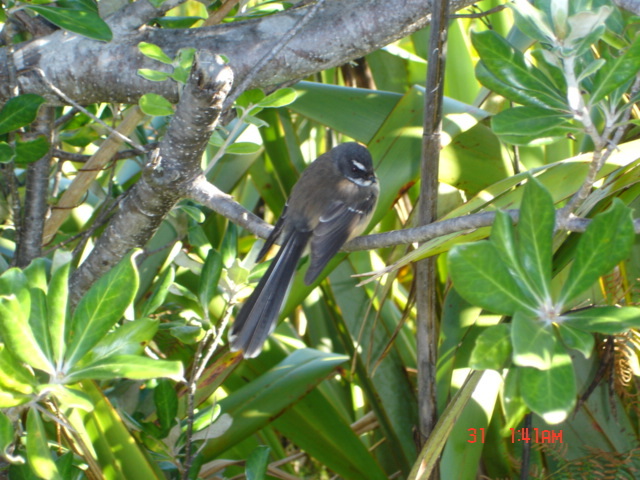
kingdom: Animalia
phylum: Chordata
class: Aves
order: Passeriformes
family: Rhipiduridae
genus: Rhipidura
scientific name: Rhipidura fuliginosa
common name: New zealand fantail
